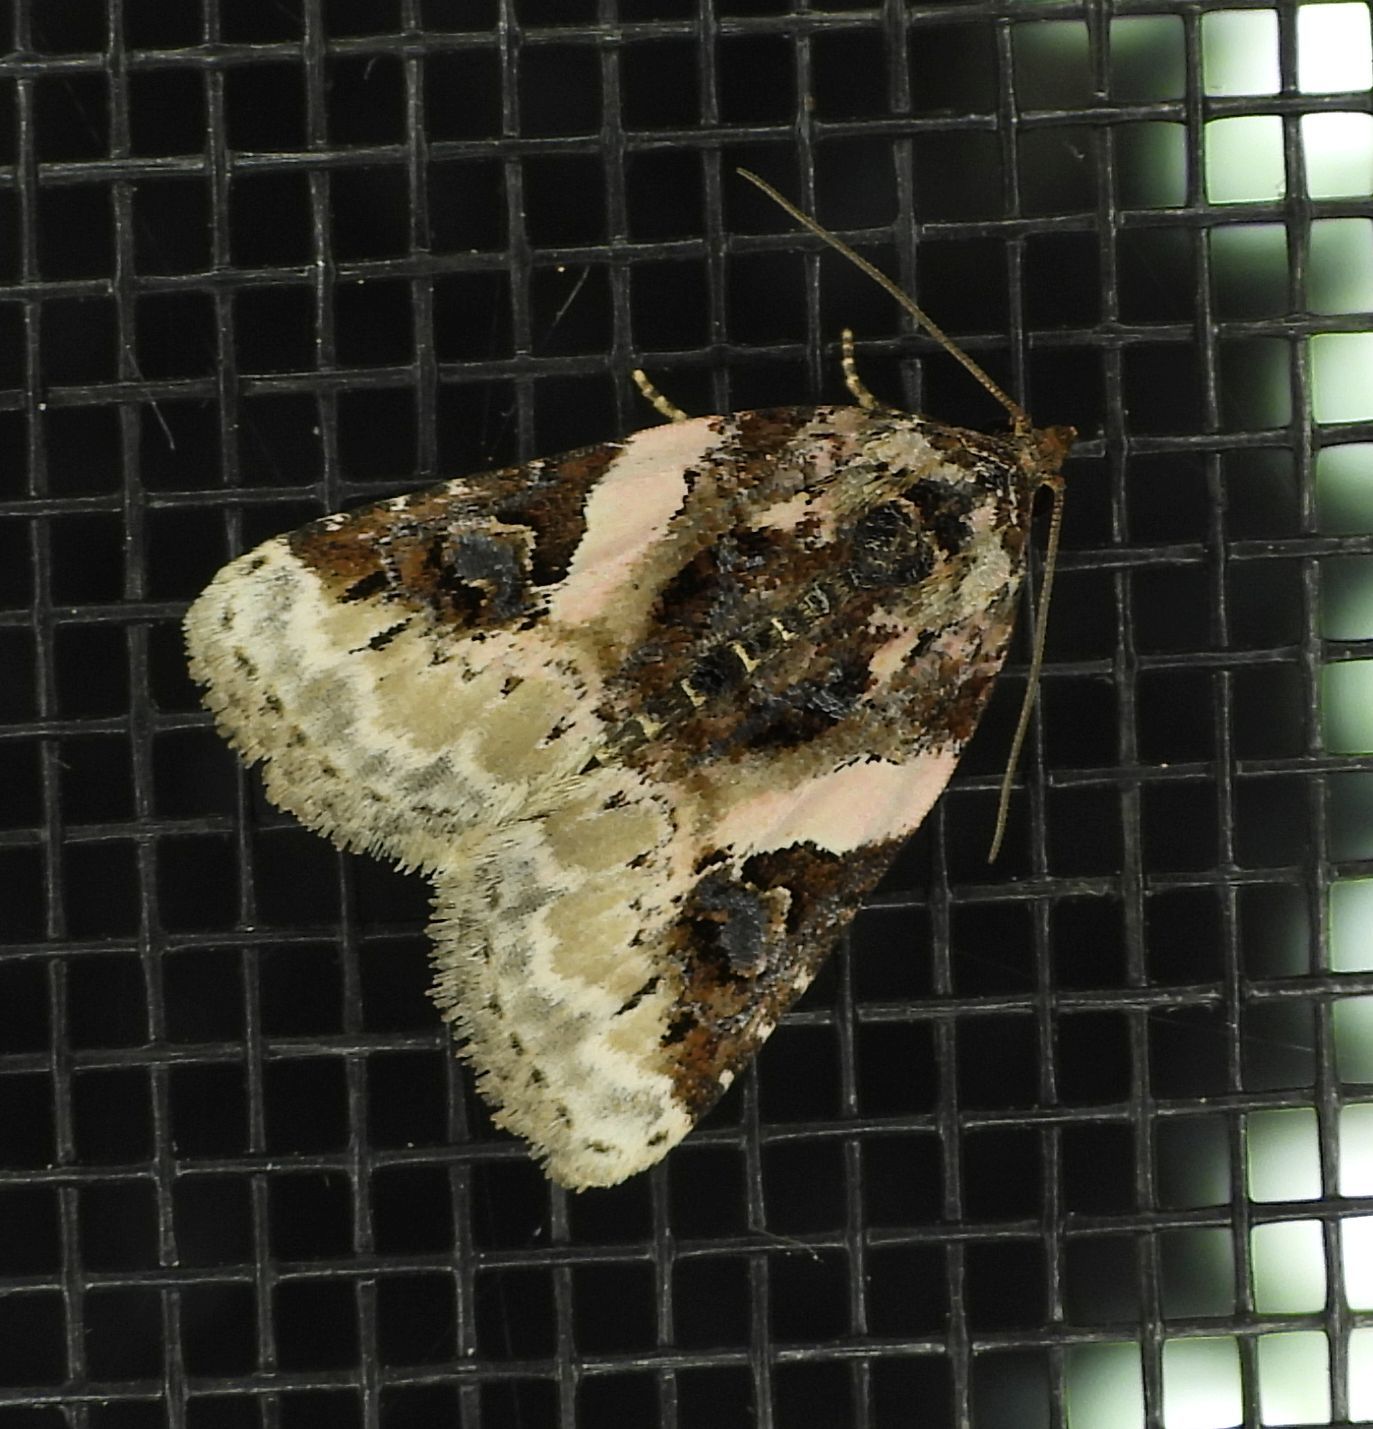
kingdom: Animalia
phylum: Arthropoda
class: Insecta
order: Lepidoptera
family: Noctuidae
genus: Pseudeustrotia
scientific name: Pseudeustrotia carneola
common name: Pink-barred lithacodia moth
